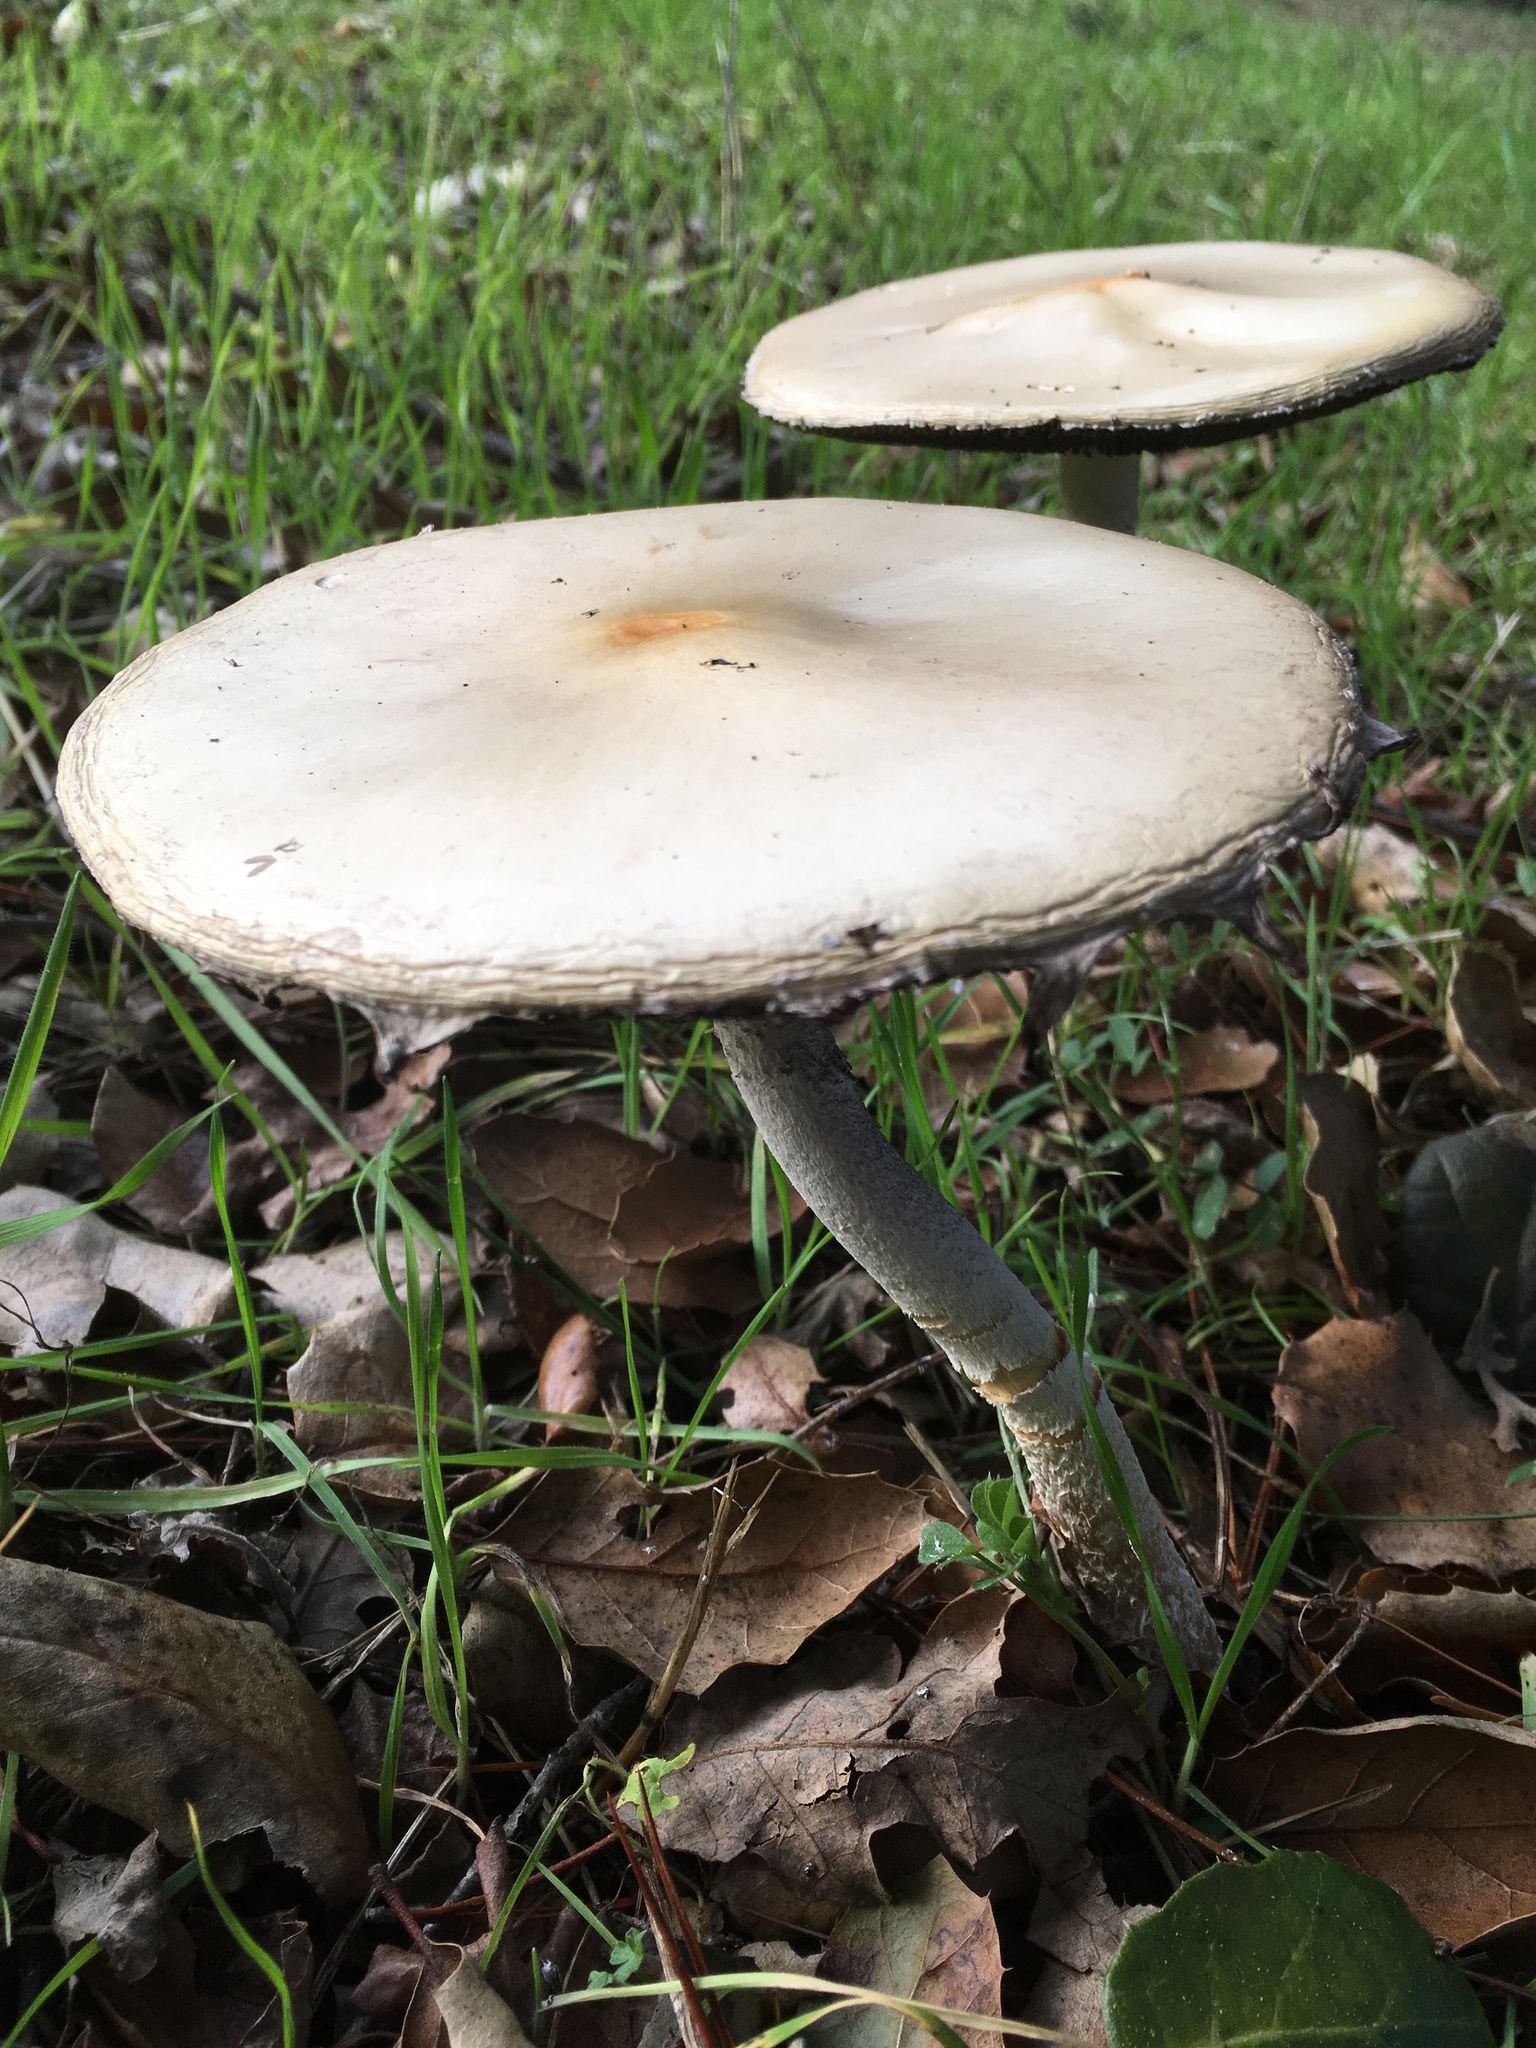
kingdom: Fungi
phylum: Basidiomycota
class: Agaricomycetes
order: Agaricales
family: Strophariaceae
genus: Leratiomyces
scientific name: Leratiomyces percevalii
